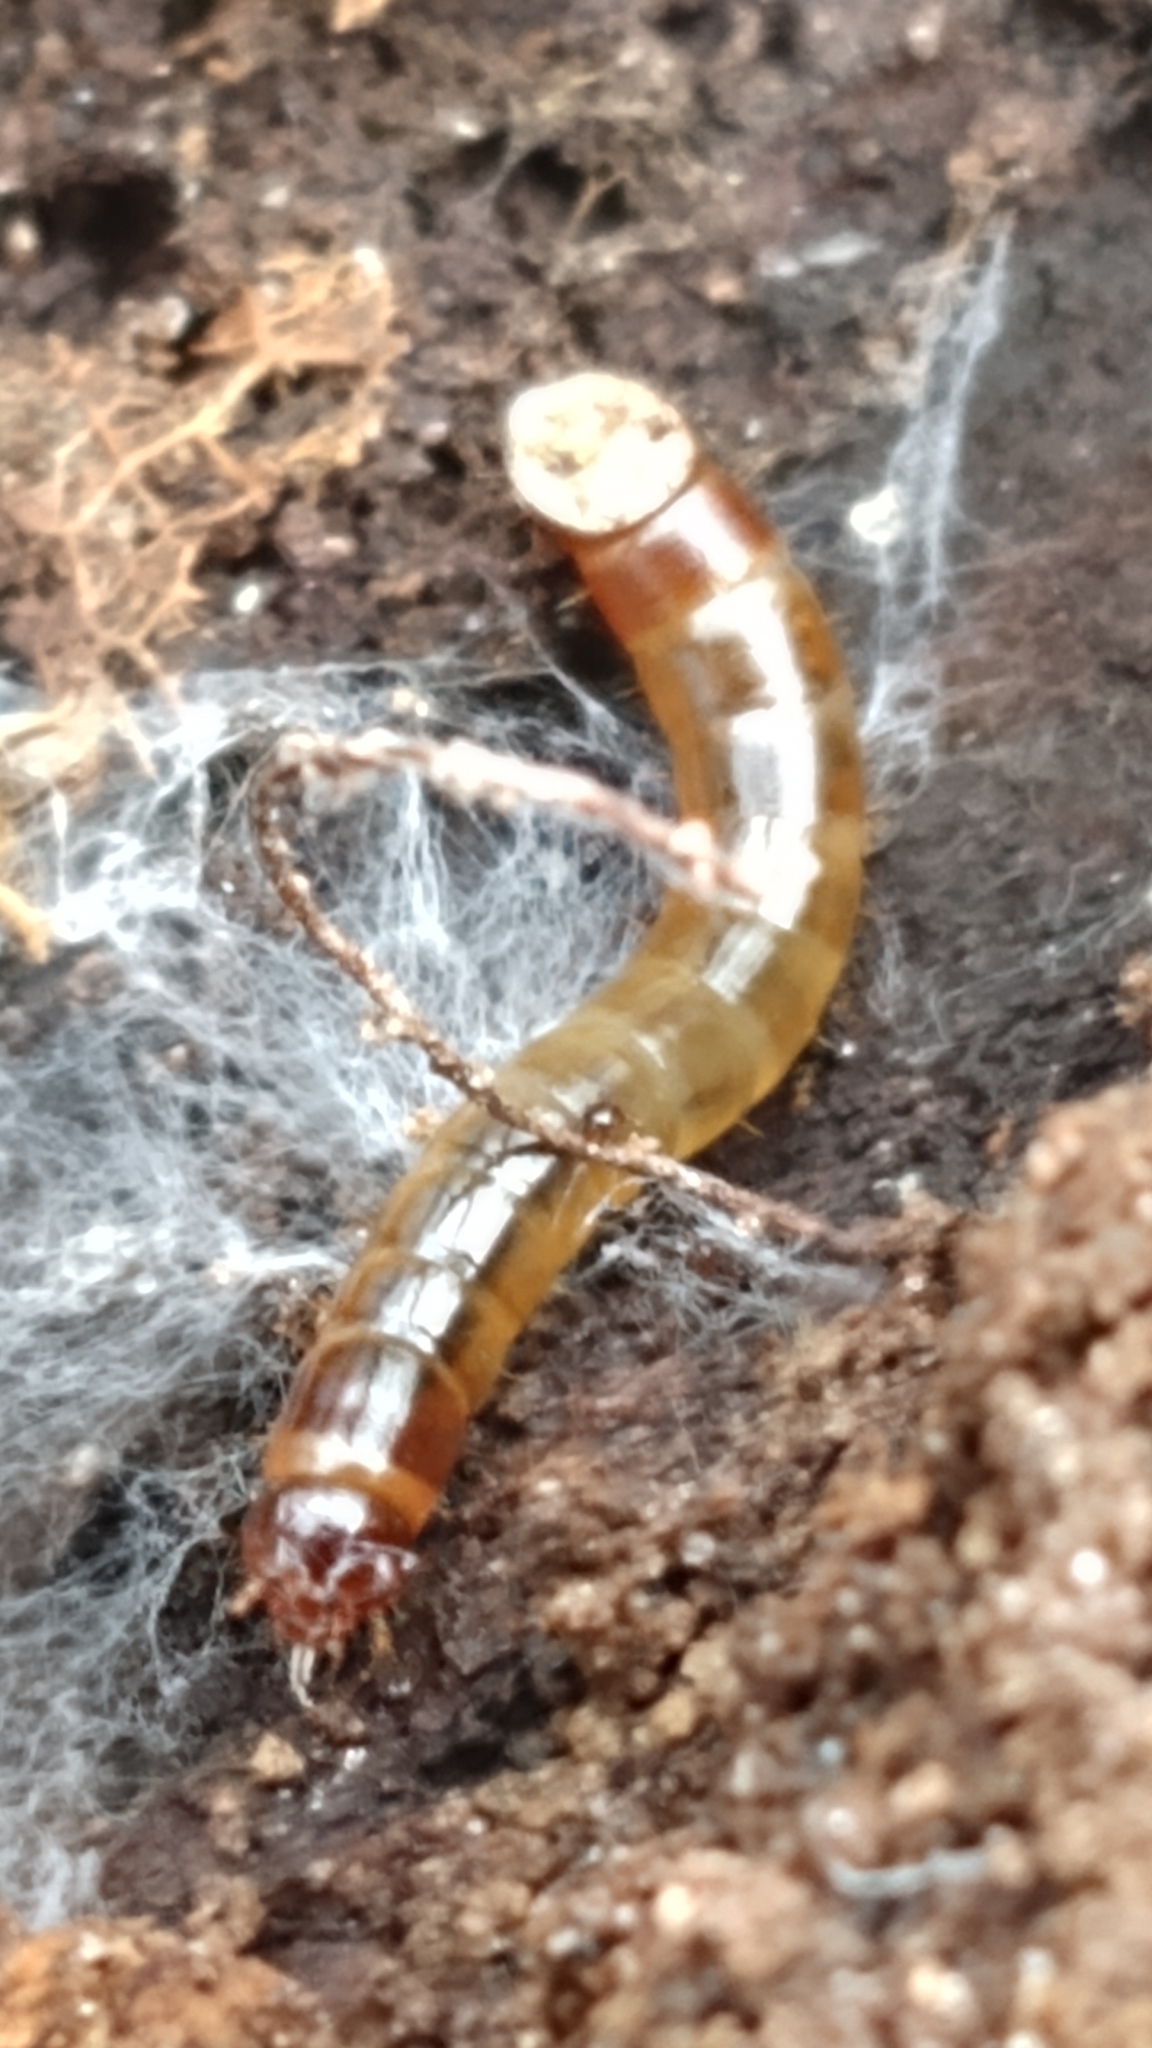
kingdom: Animalia
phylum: Arthropoda
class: Insecta
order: Coleoptera
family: Tenebrionidae
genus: Meracantha
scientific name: Meracantha contracta
